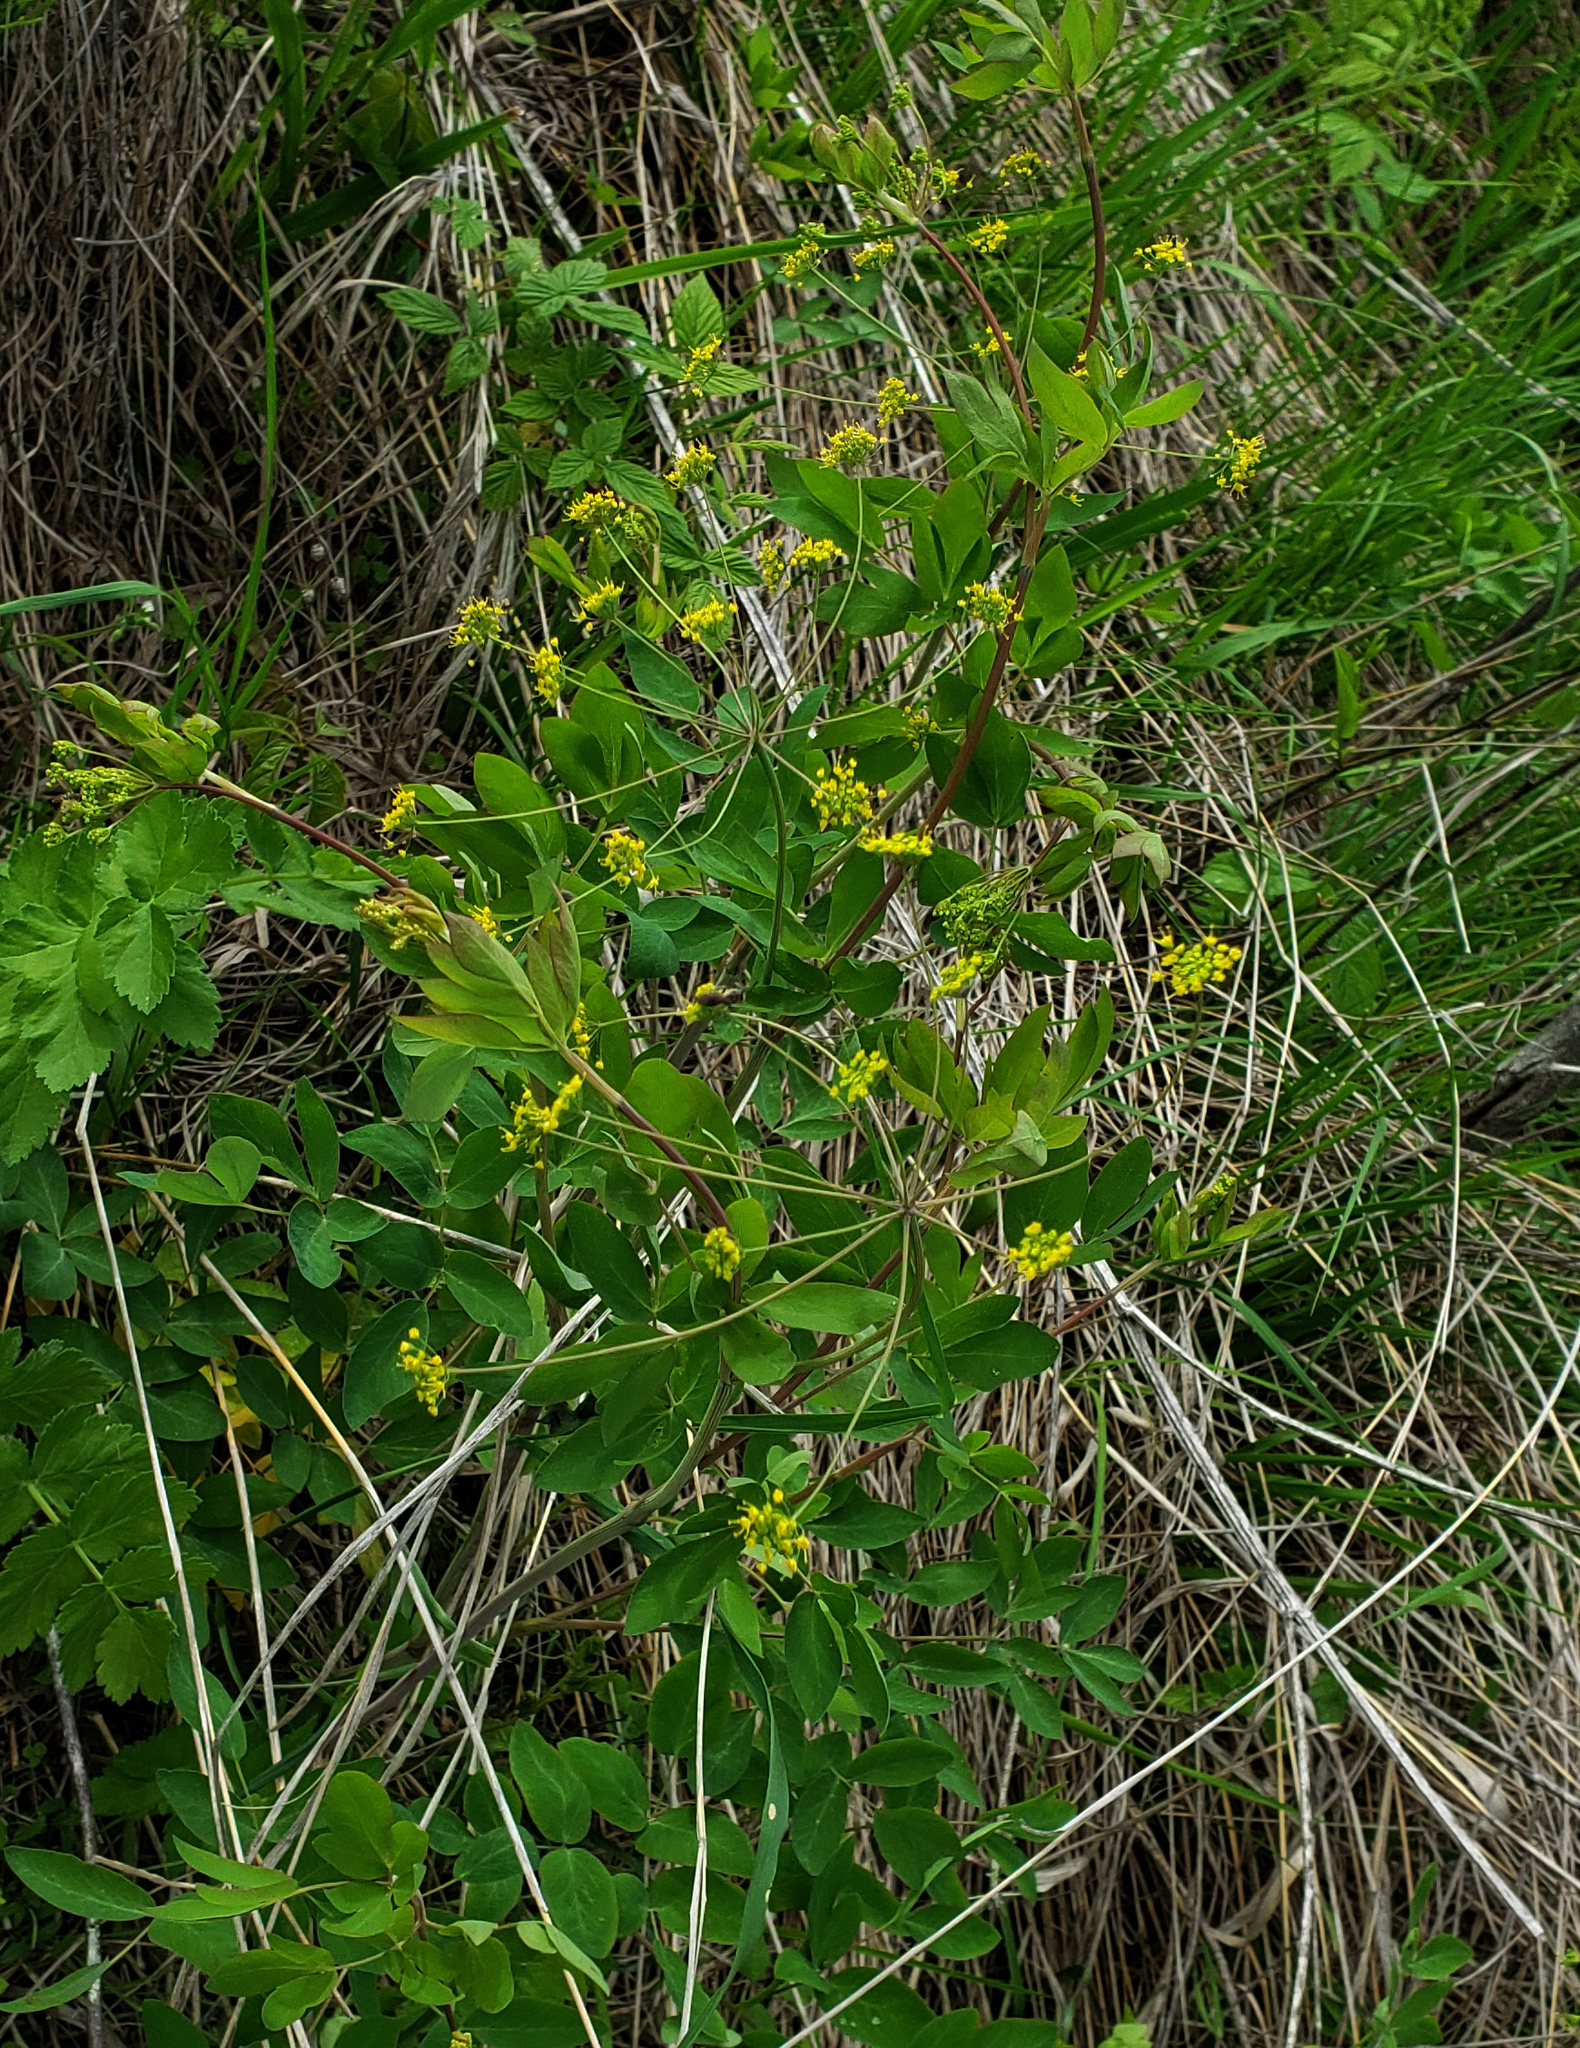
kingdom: Plantae
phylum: Tracheophyta
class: Magnoliopsida
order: Apiales
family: Apiaceae
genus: Taenidia
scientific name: Taenidia integerrima
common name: Golden alexander
